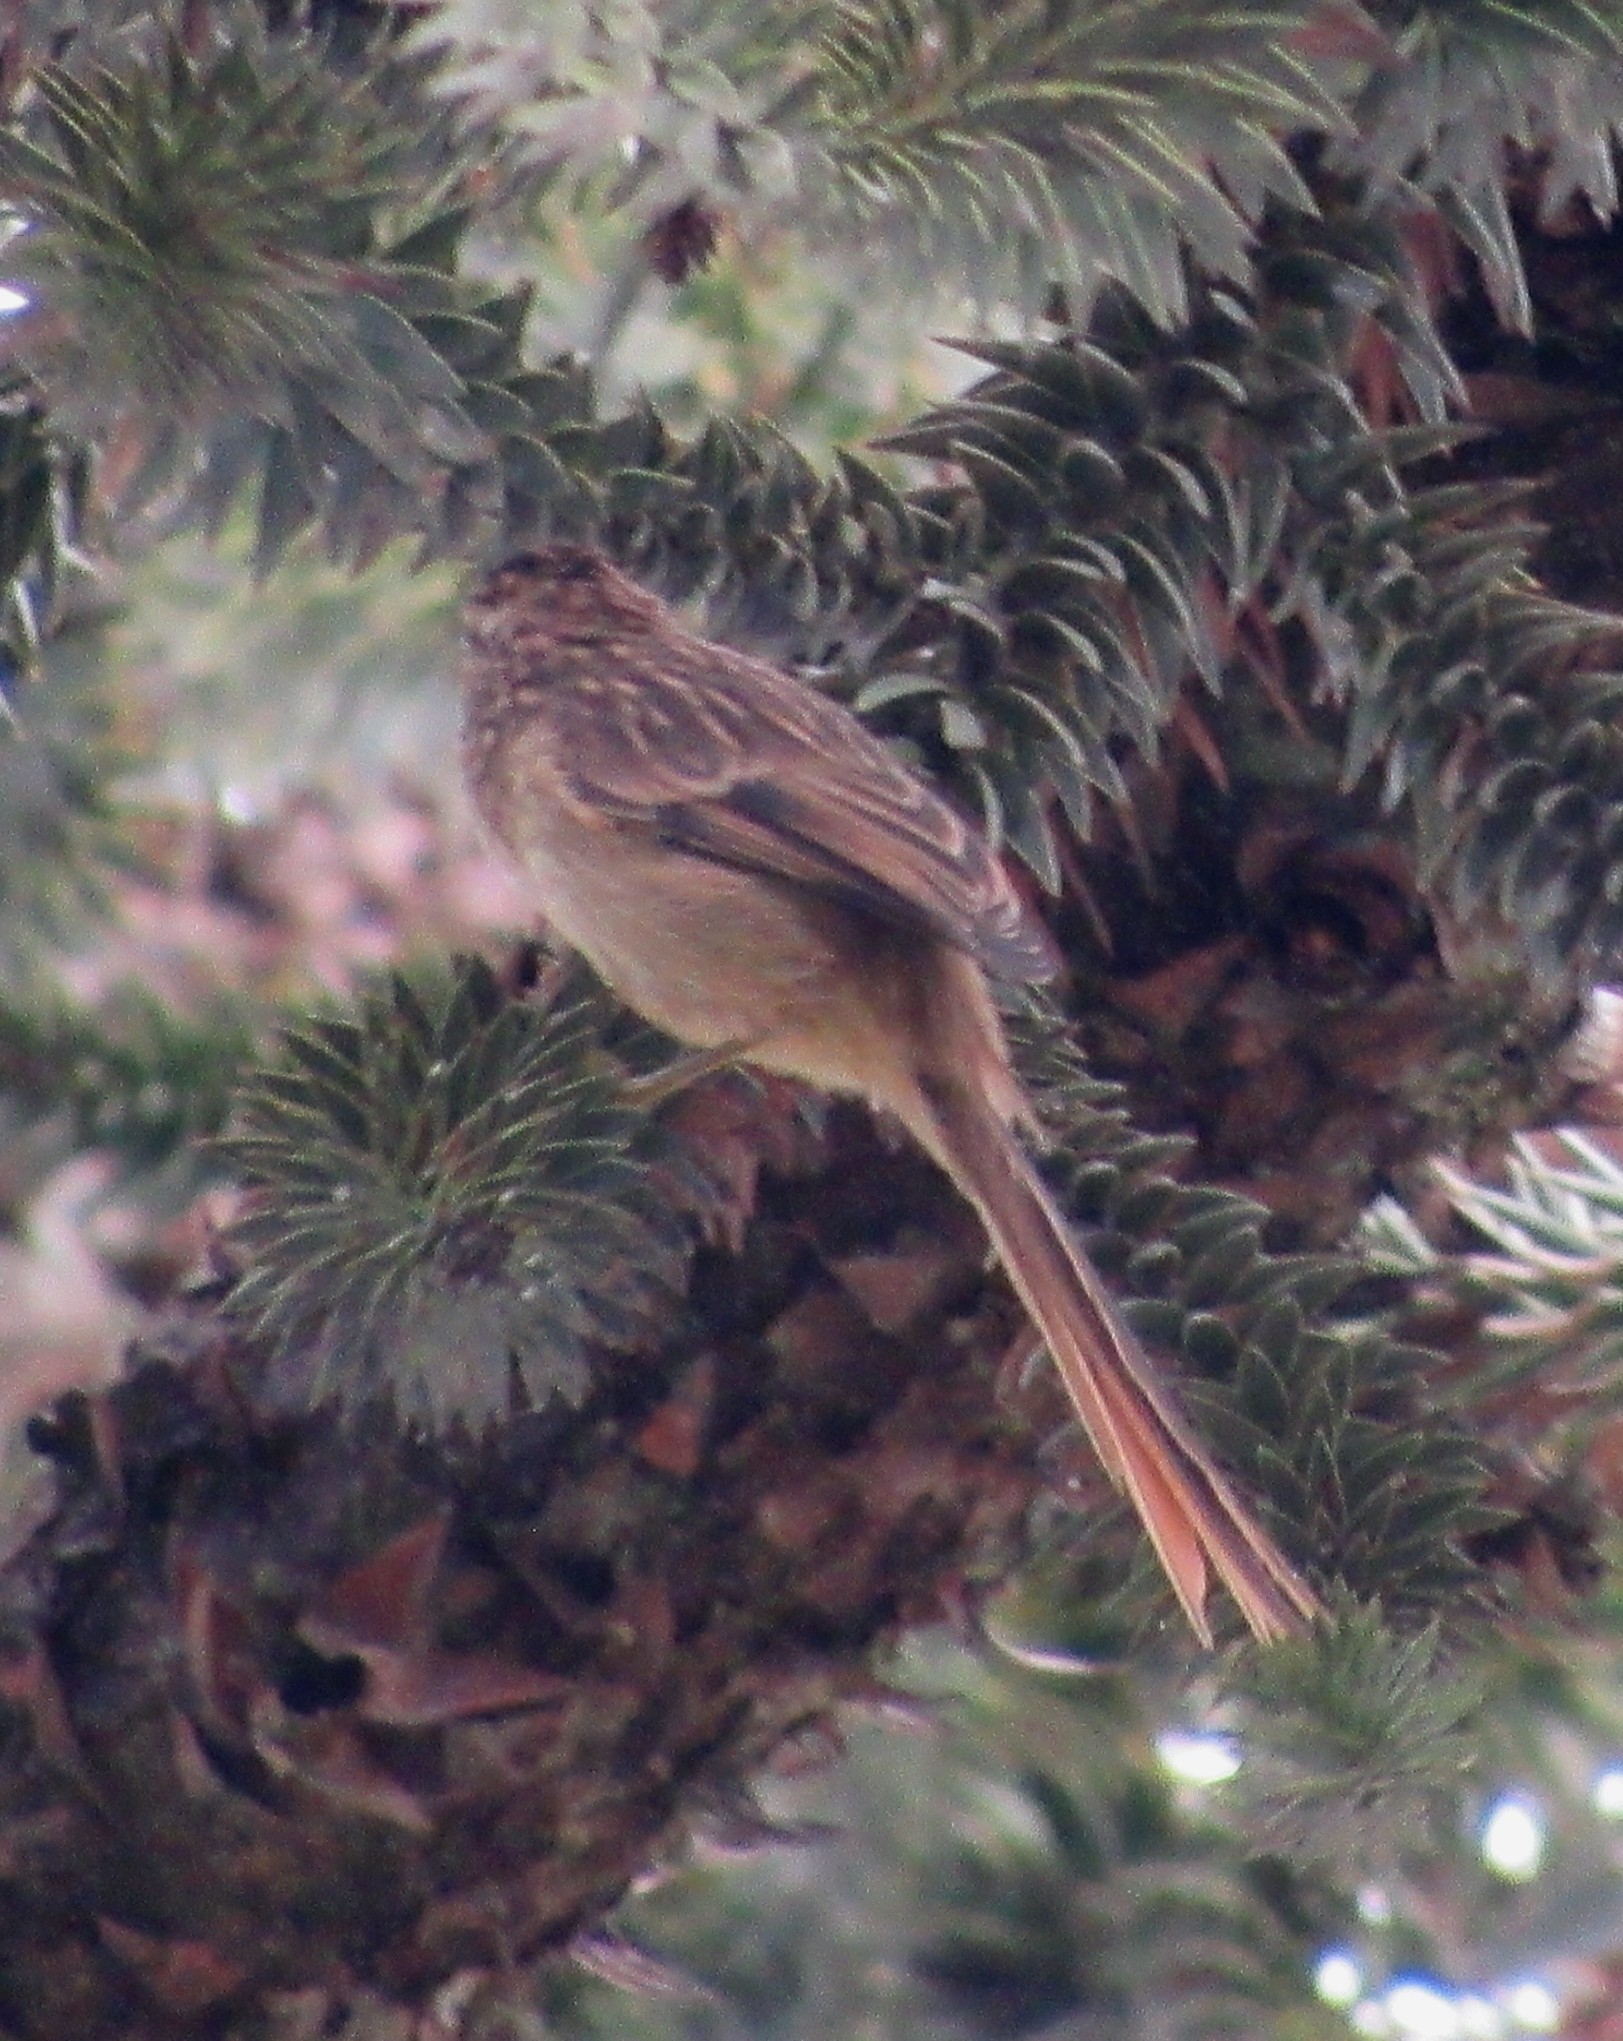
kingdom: Animalia
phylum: Chordata
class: Aves
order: Passeriformes
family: Furnariidae
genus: Leptasthenura
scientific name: Leptasthenura striolata
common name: Striolated tit-spinetail
